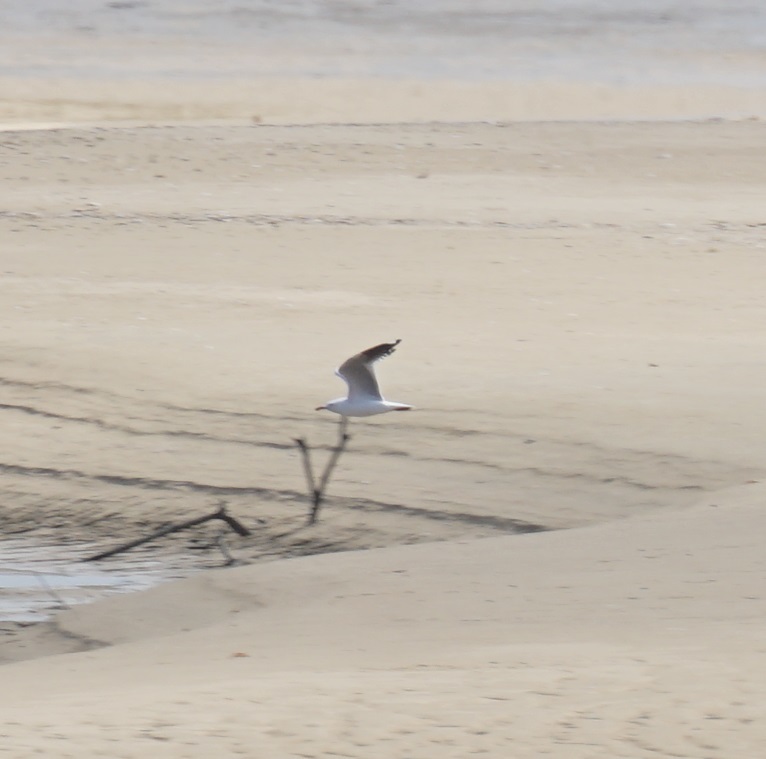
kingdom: Animalia
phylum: Chordata
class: Aves
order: Charadriiformes
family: Laridae
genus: Chroicocephalus
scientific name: Chroicocephalus novaehollandiae
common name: Silver gull
